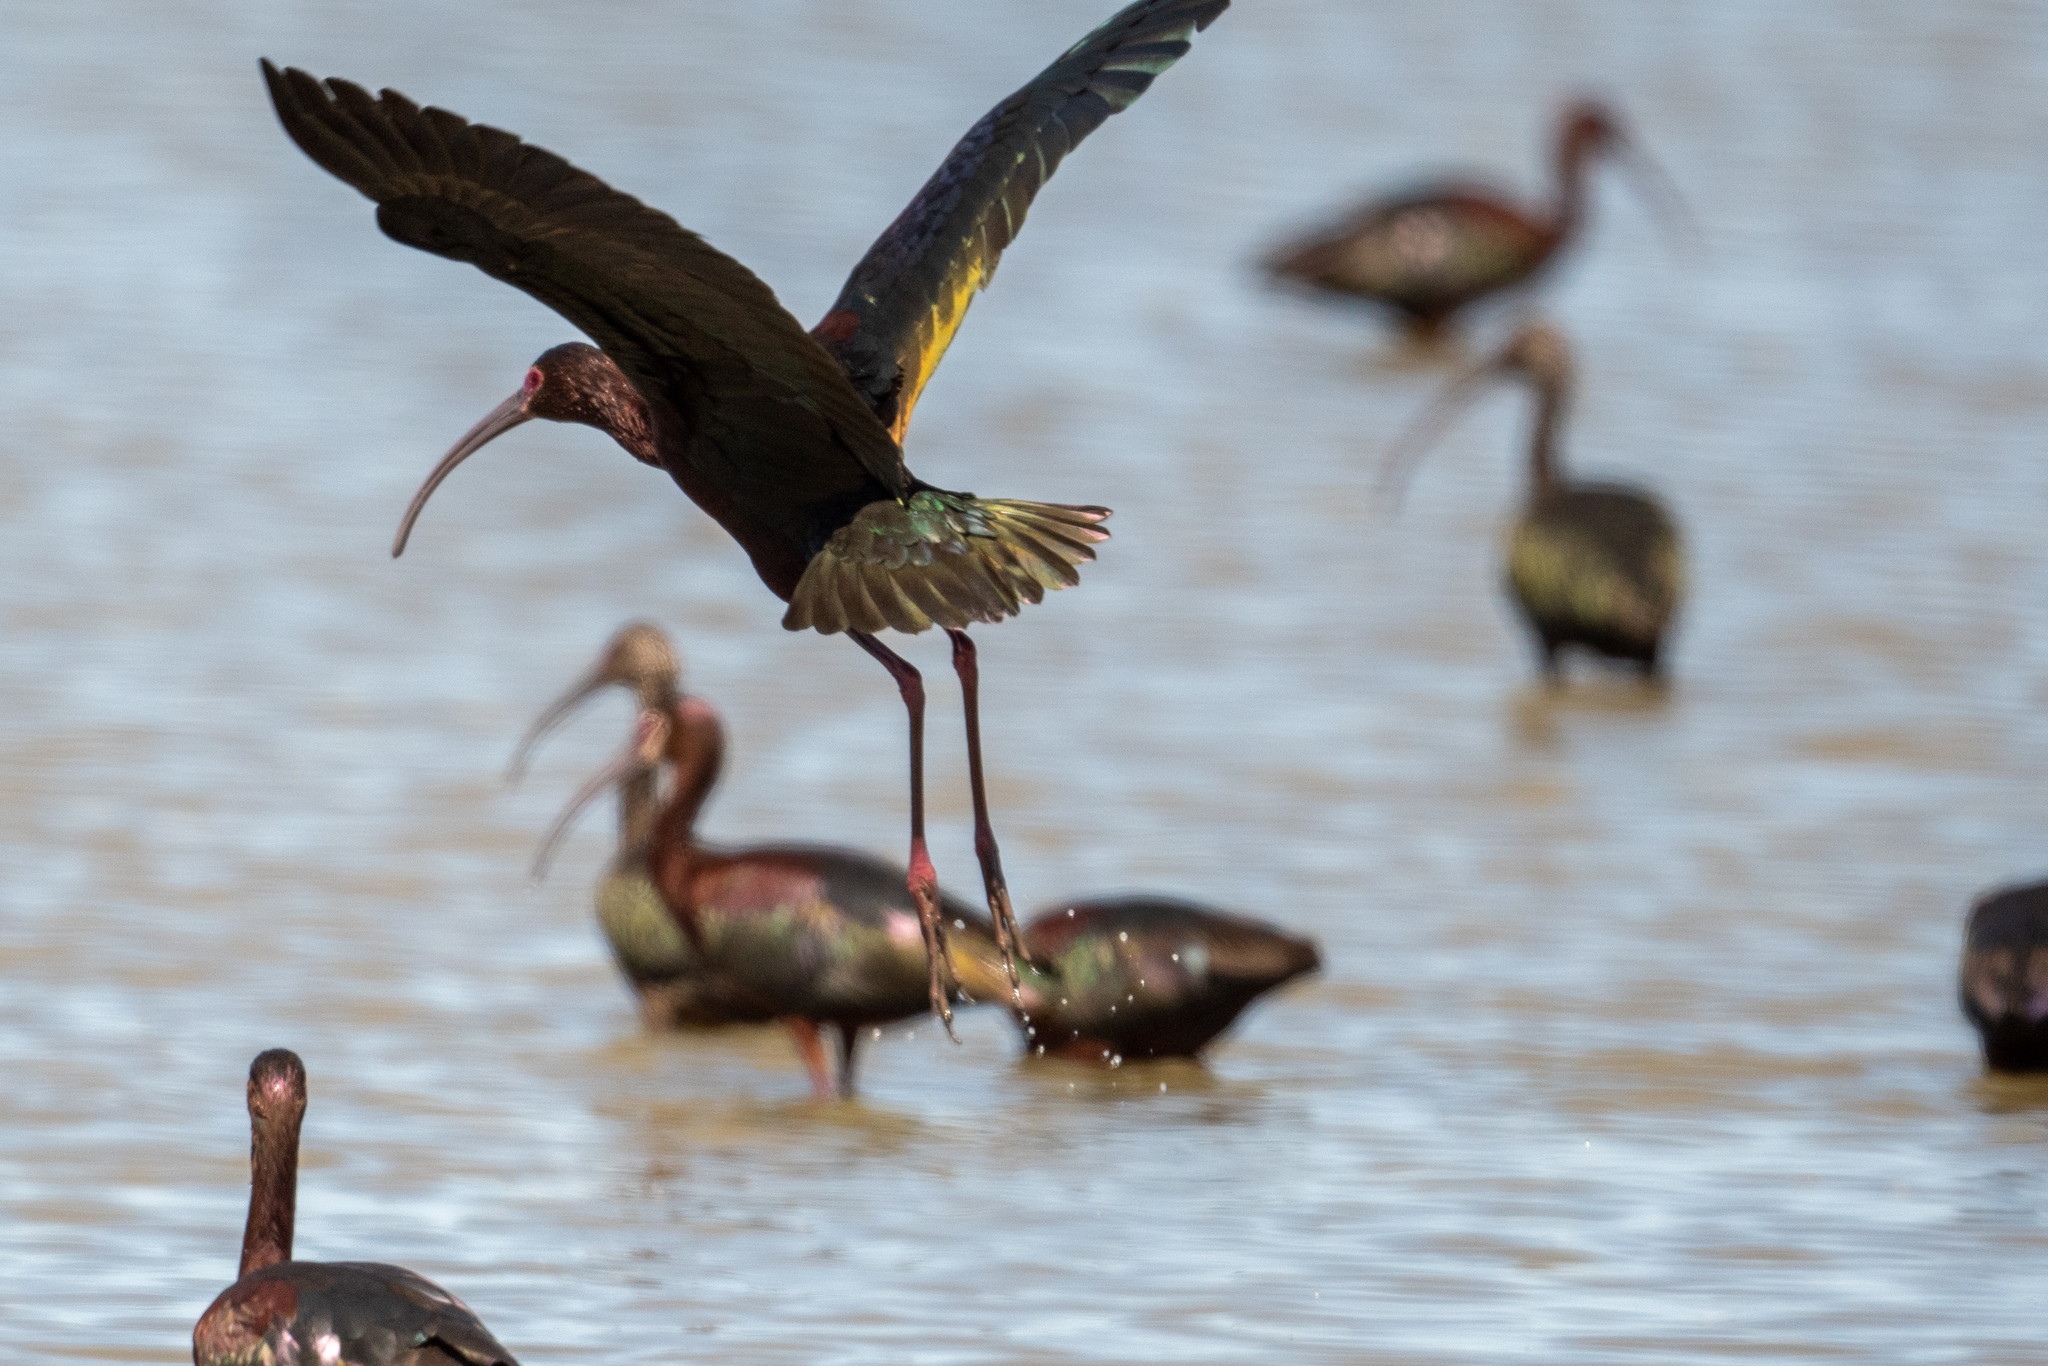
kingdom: Animalia
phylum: Chordata
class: Aves
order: Pelecaniformes
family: Threskiornithidae
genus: Plegadis
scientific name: Plegadis chihi
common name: White-faced ibis
